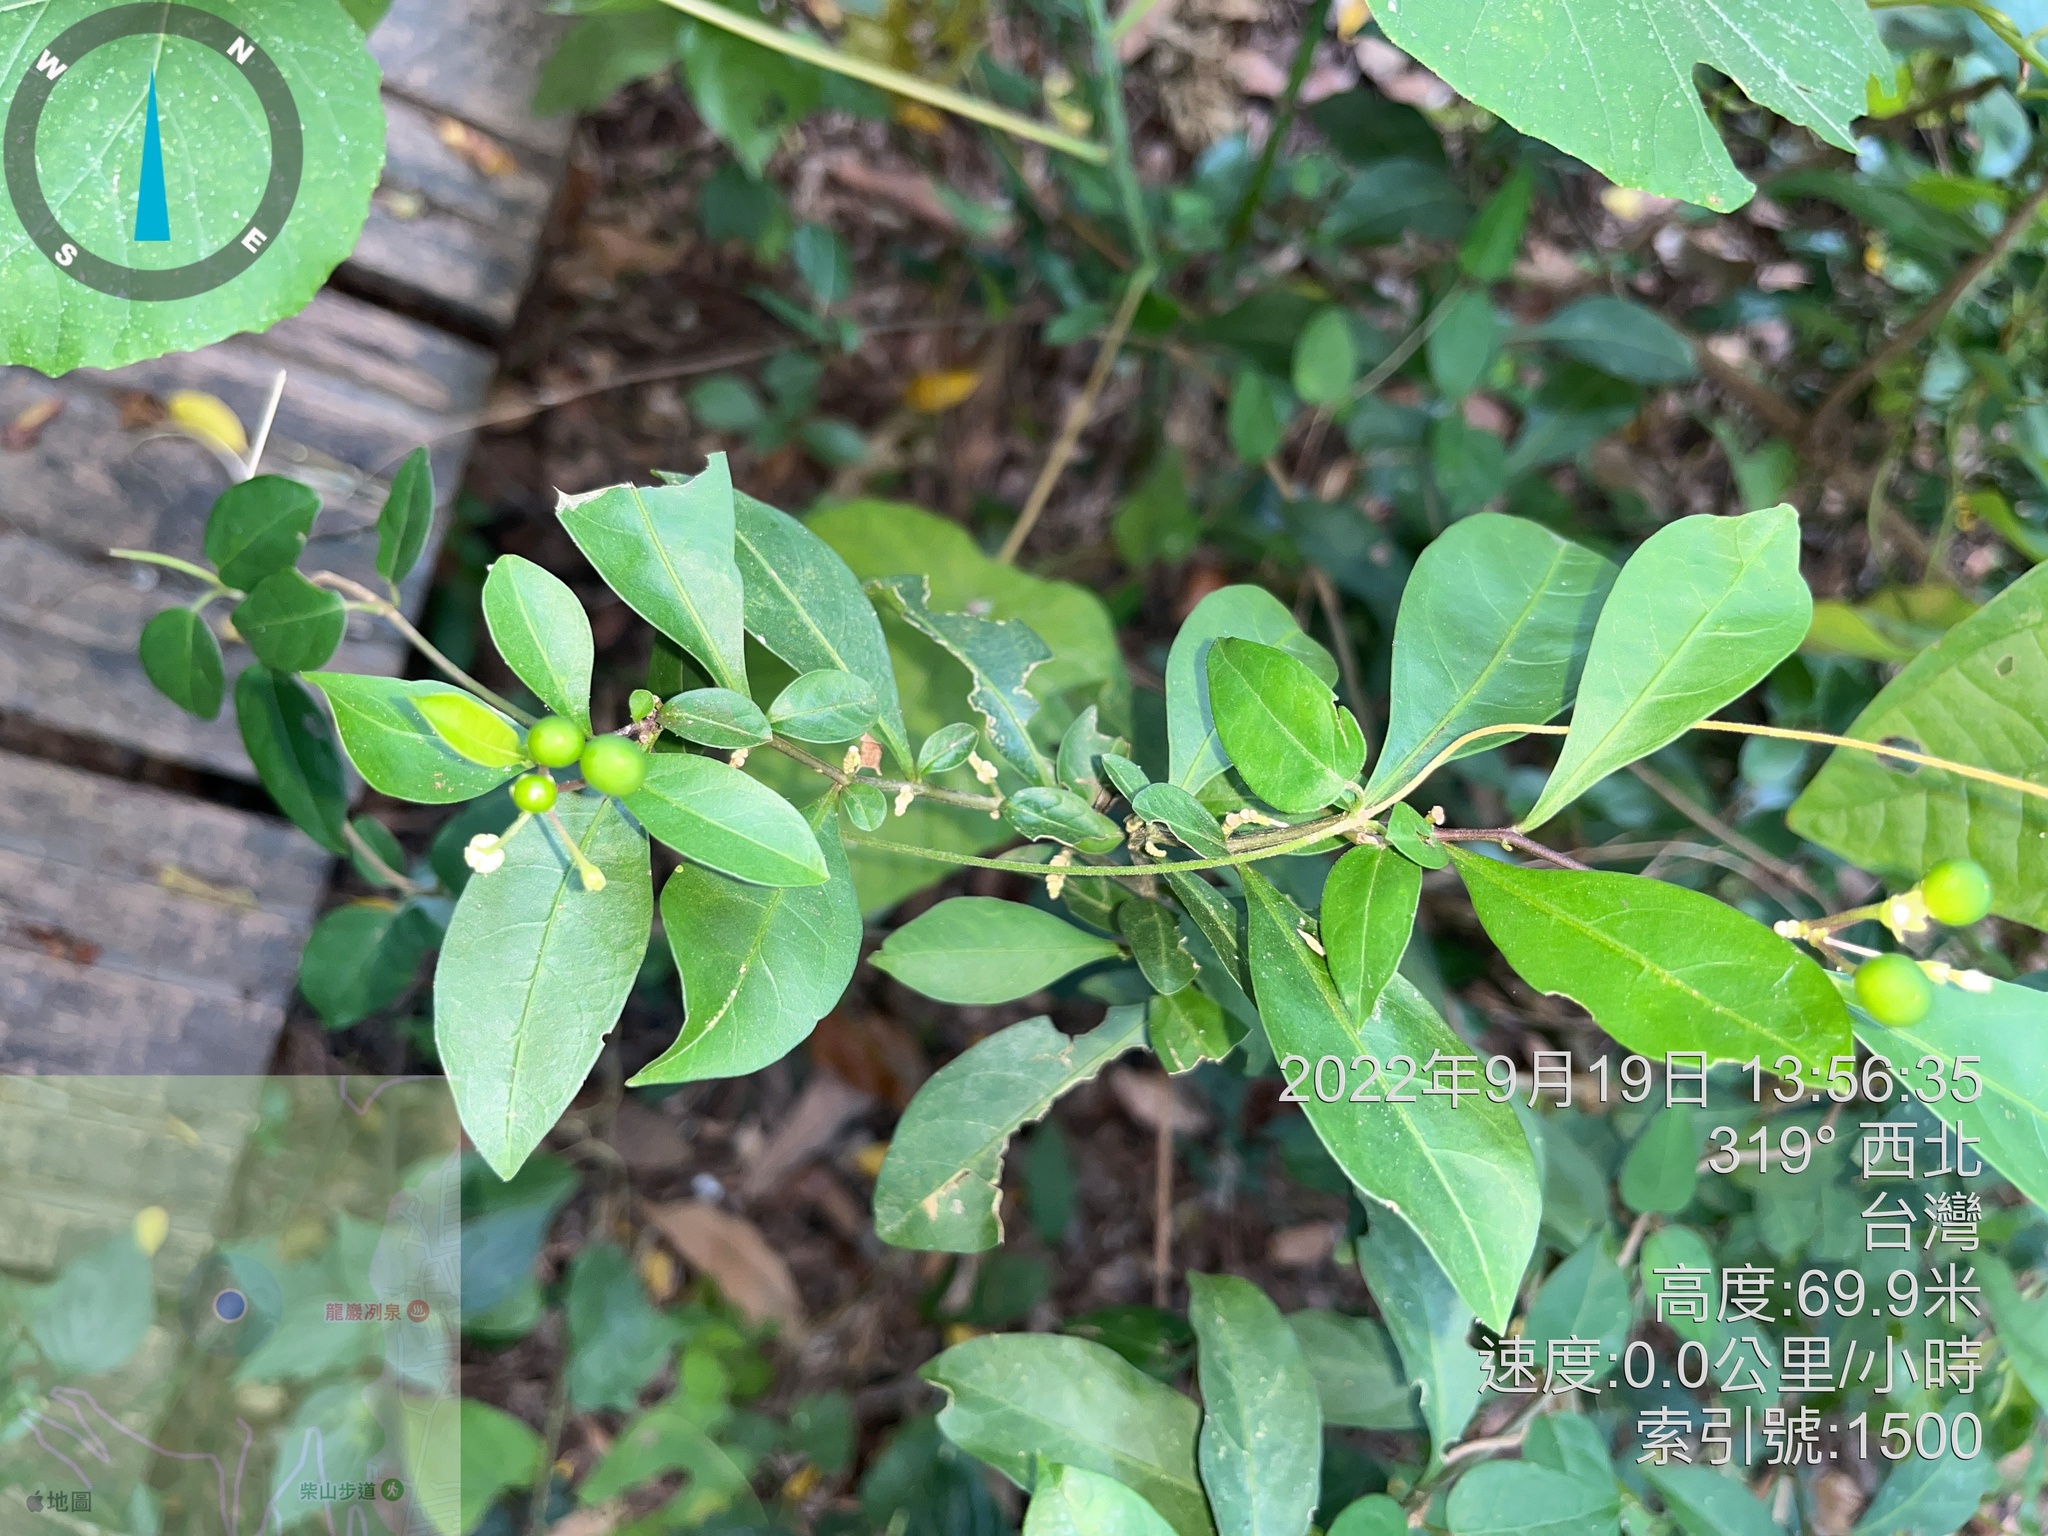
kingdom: Plantae
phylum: Tracheophyta
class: Magnoliopsida
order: Solanales
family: Solanaceae
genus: Solanum
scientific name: Solanum diphyllum
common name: Twoleaf nightshade
